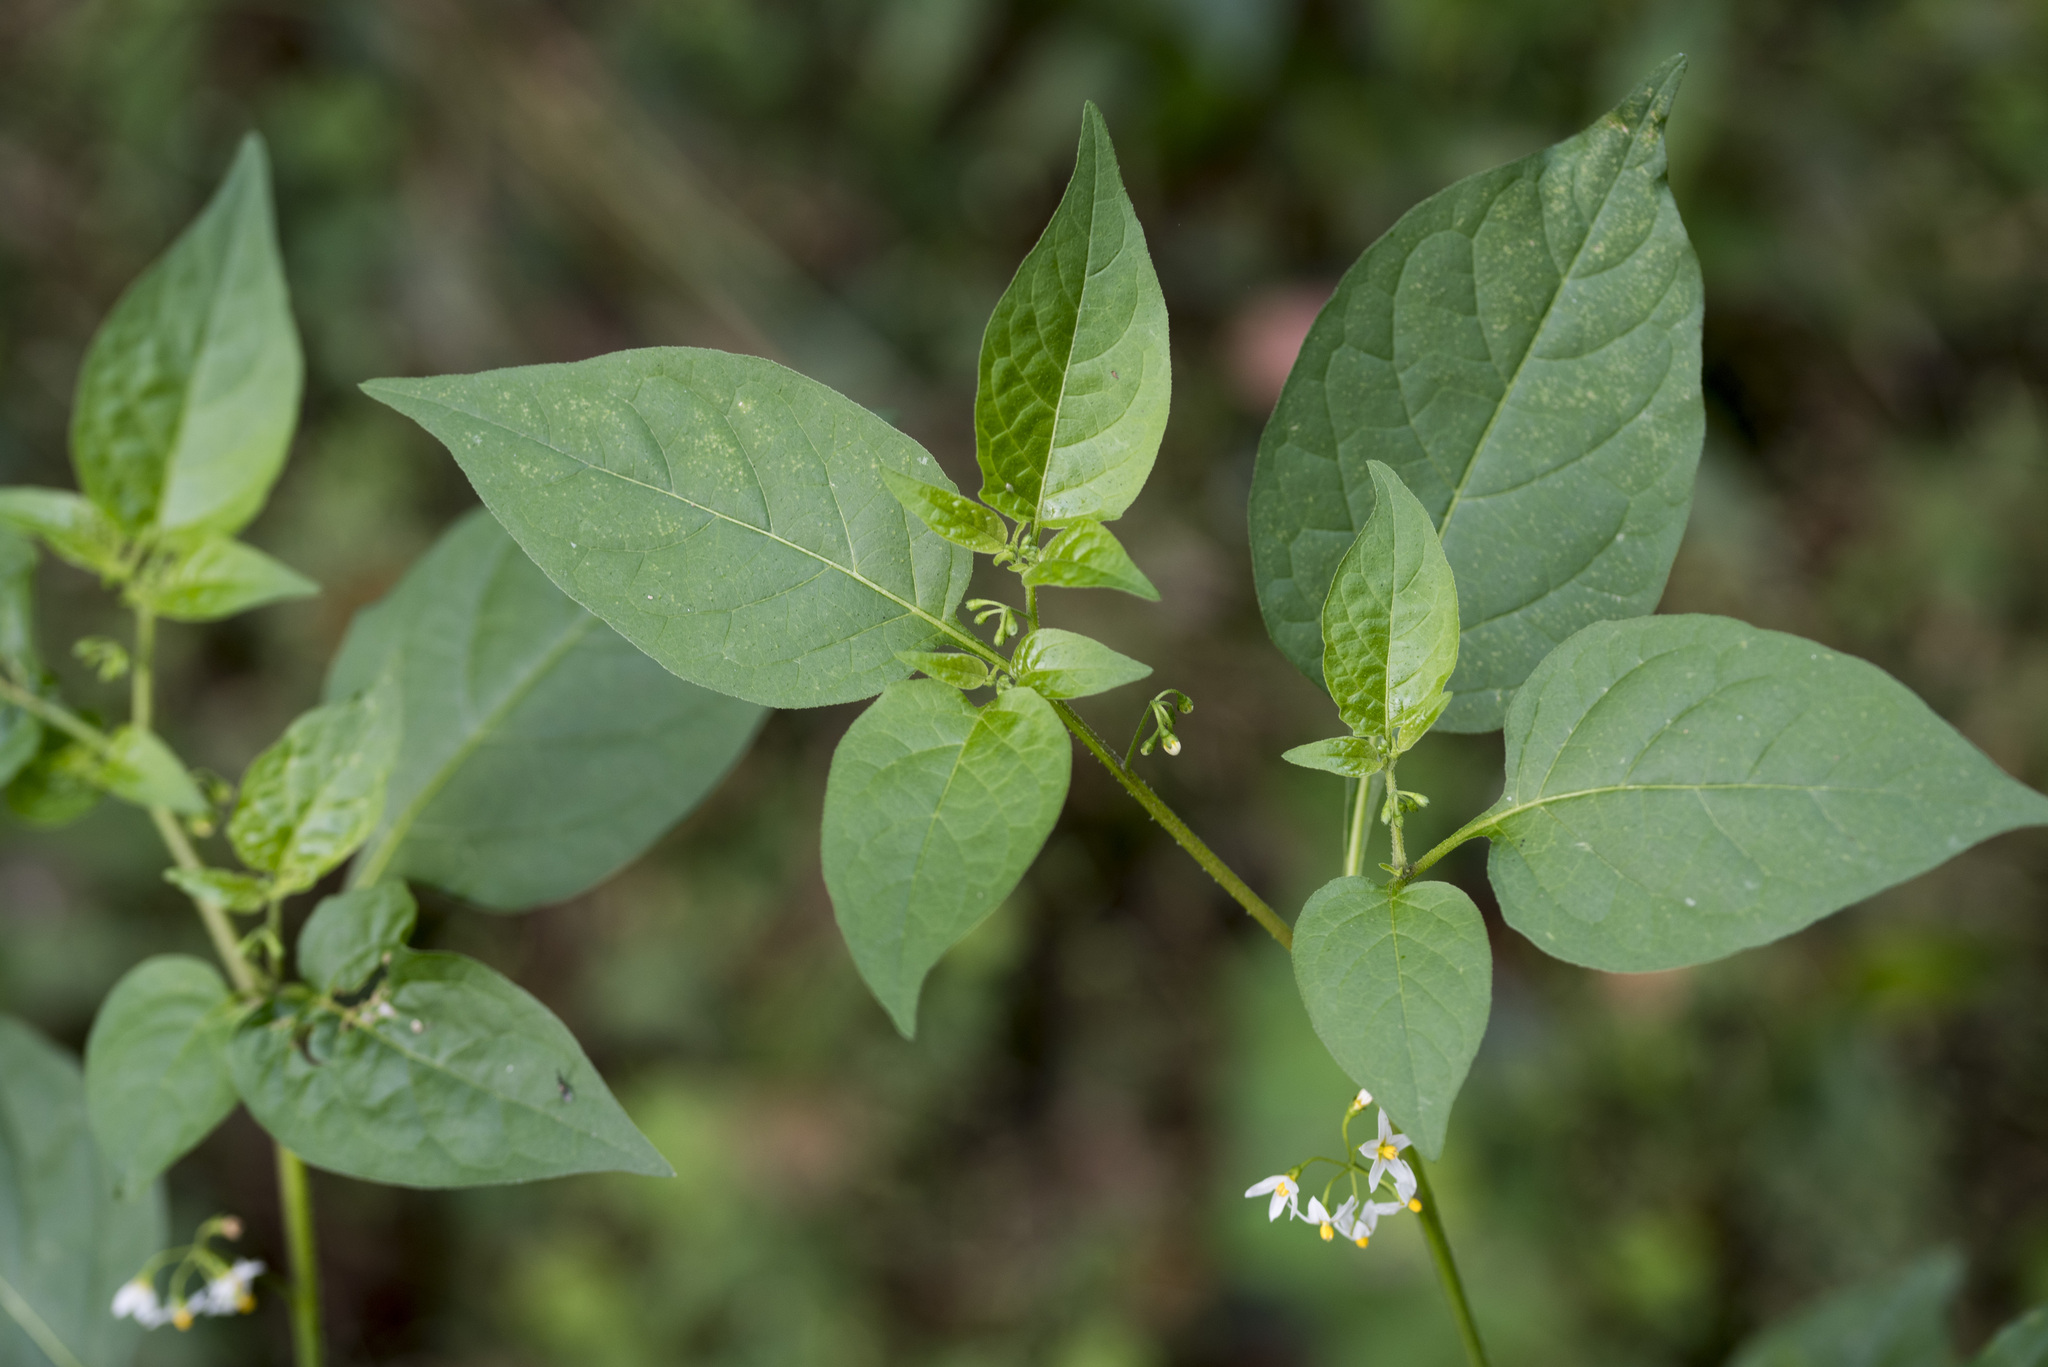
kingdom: Plantae
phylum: Tracheophyta
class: Magnoliopsida
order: Solanales
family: Solanaceae
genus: Solanum
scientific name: Solanum americanum
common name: American black nightshade
